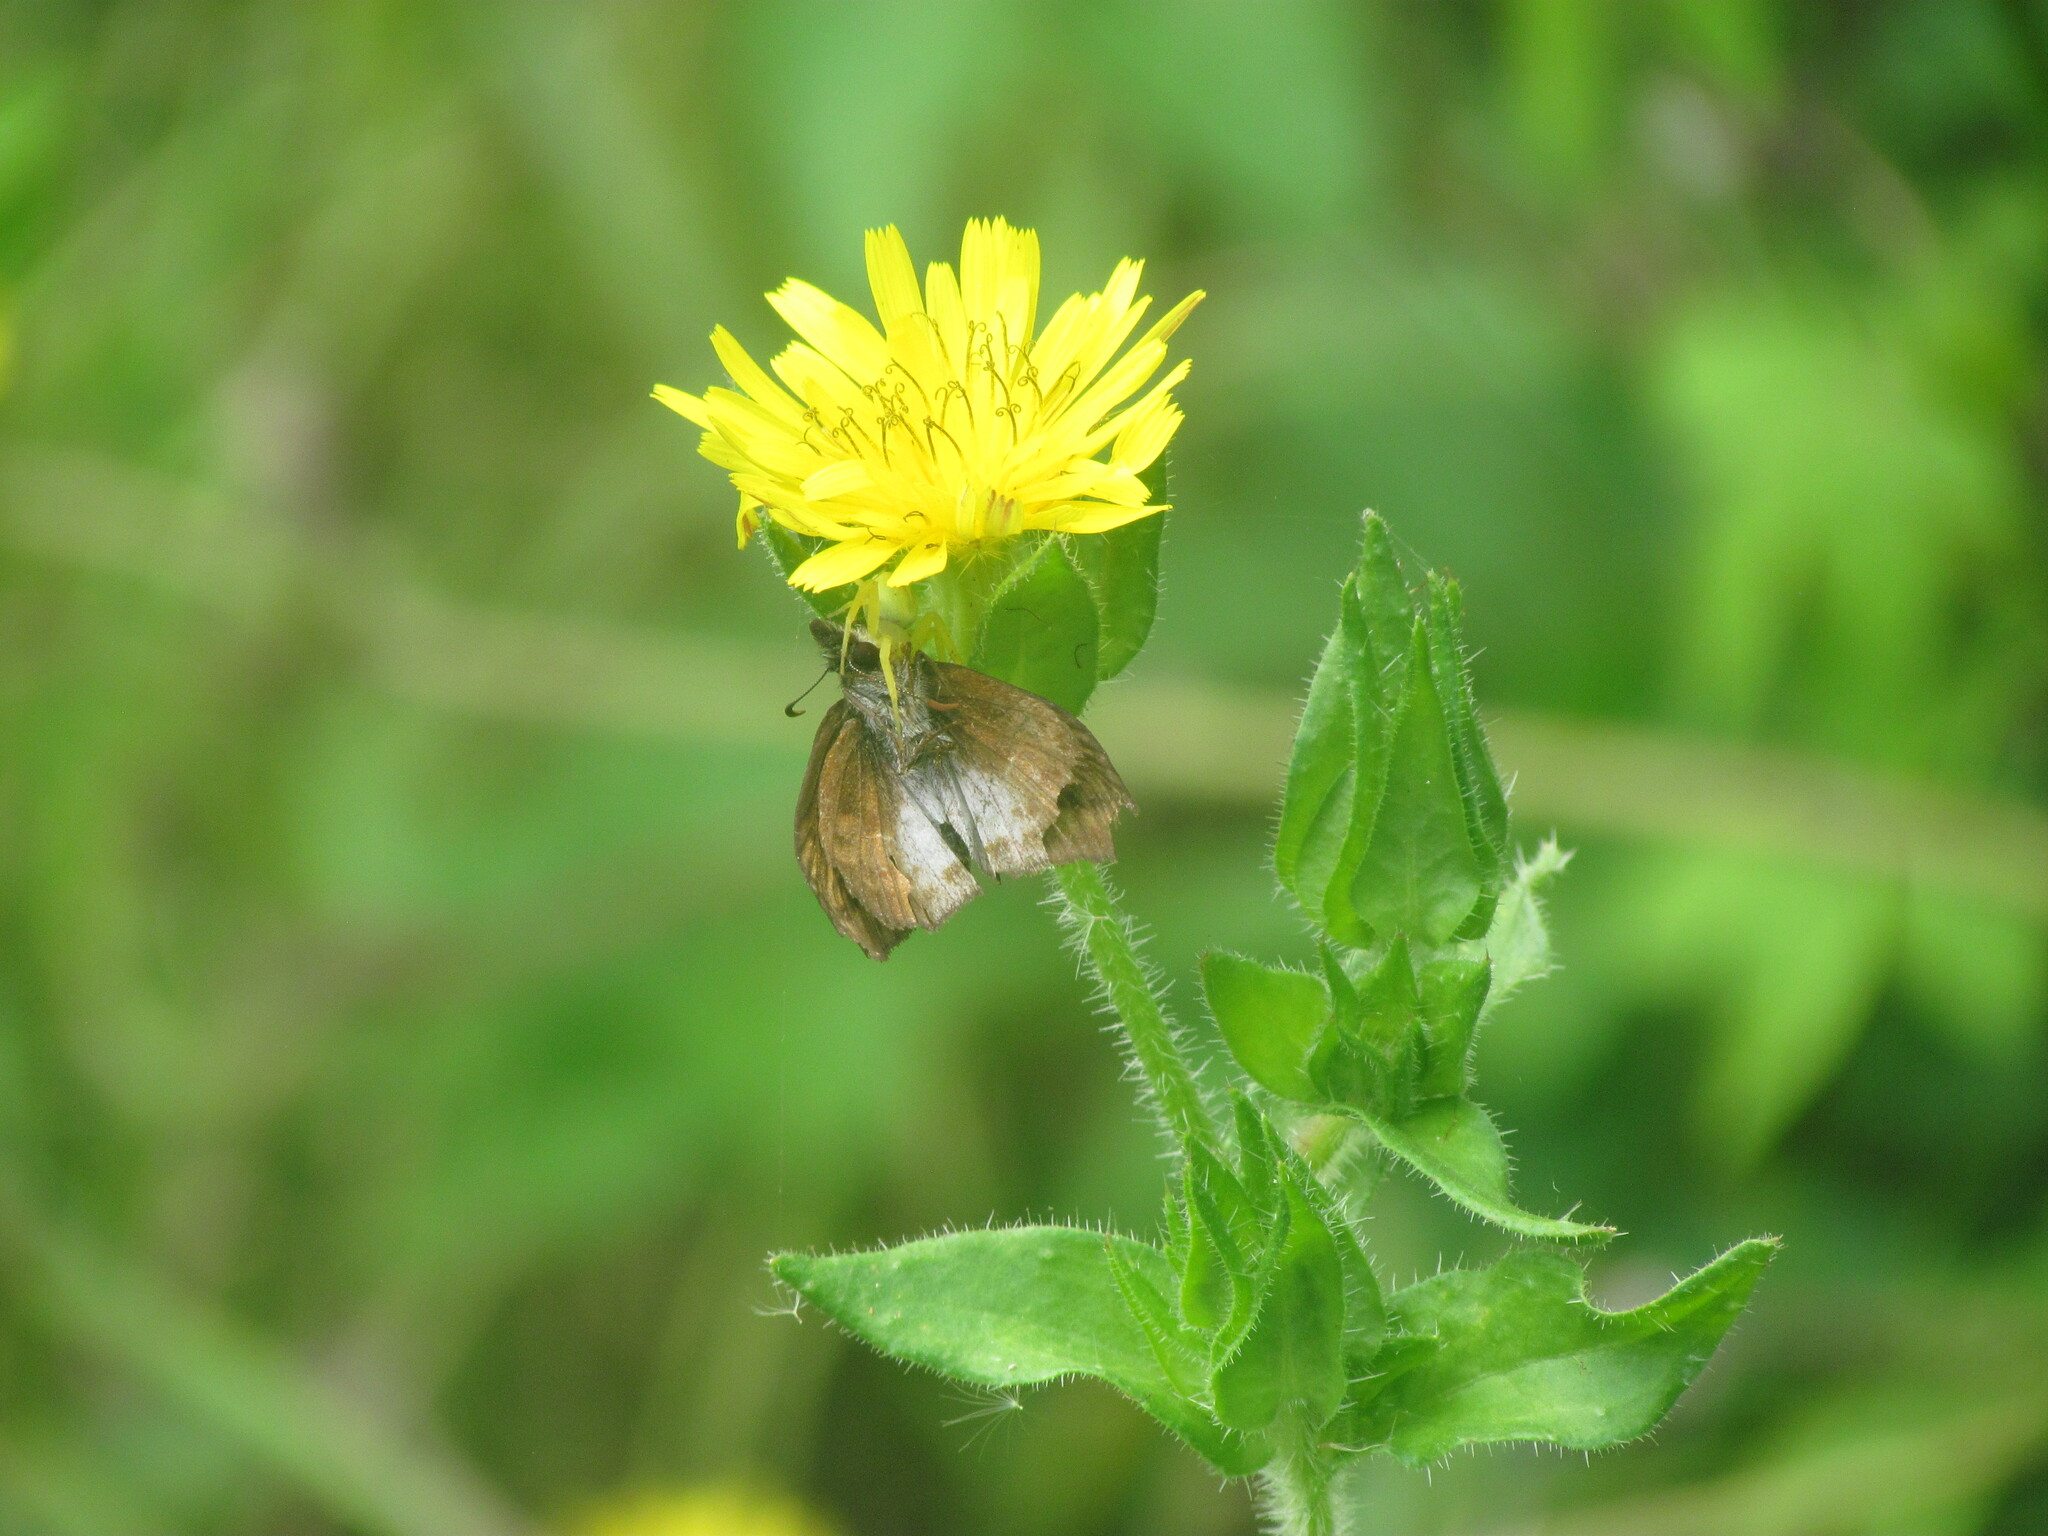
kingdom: Animalia
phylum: Arthropoda
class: Insecta
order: Lepidoptera
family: Hesperiidae
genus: Theagenes
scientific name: Theagenes dichrous
